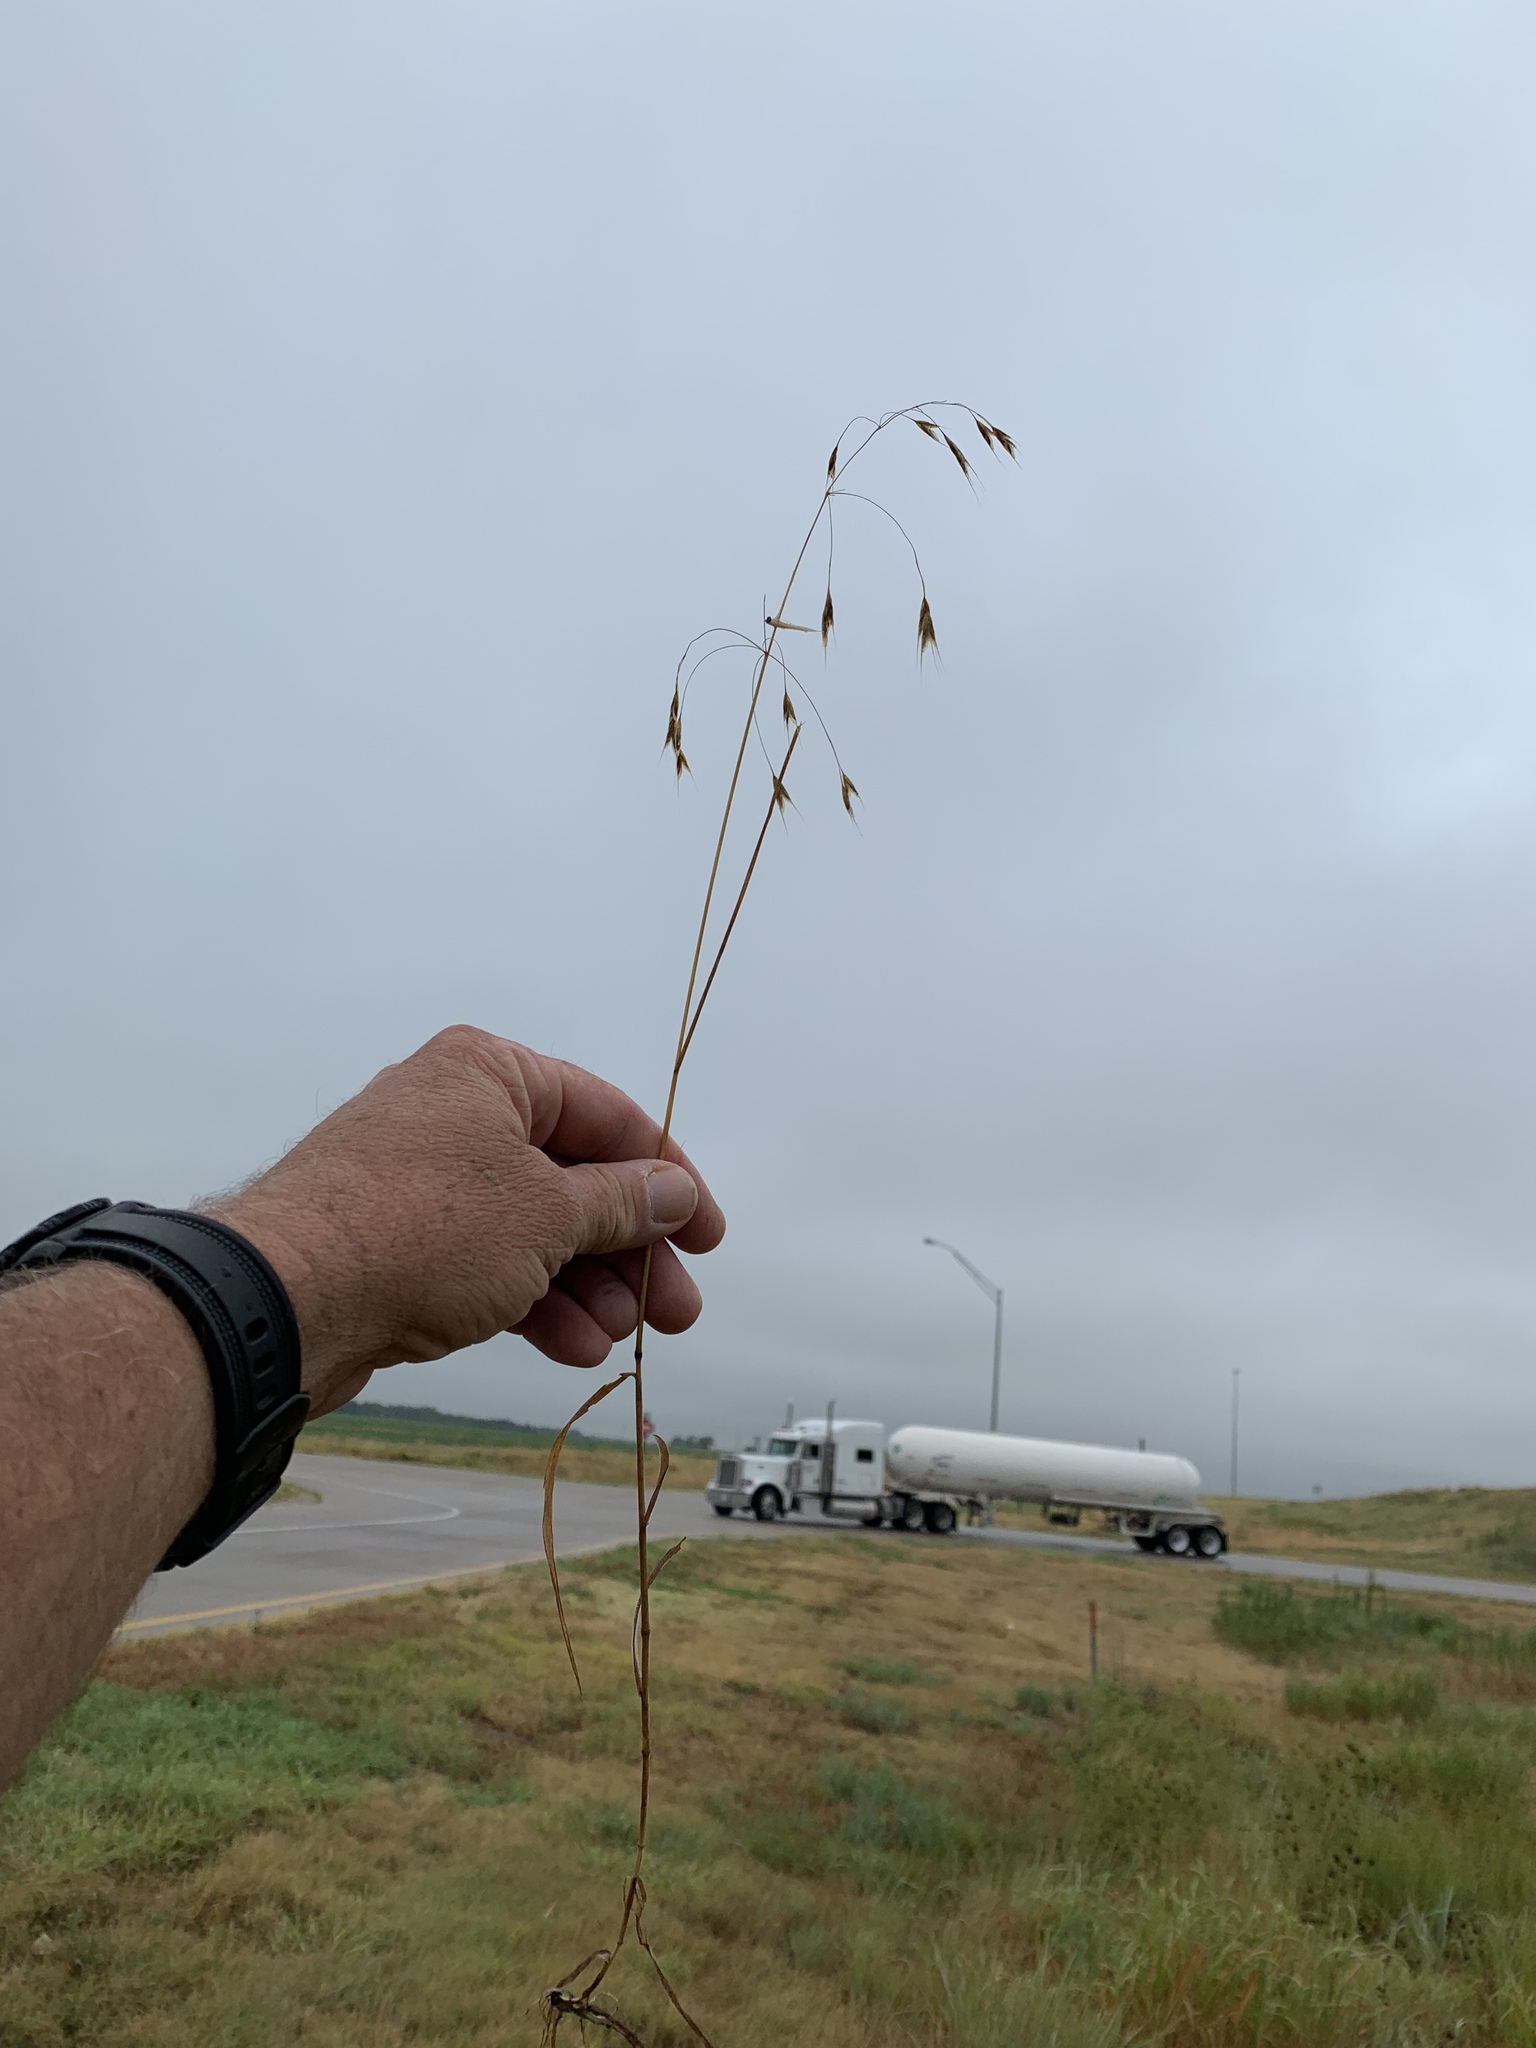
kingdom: Plantae
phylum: Tracheophyta
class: Liliopsida
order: Poales
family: Poaceae
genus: Bromus
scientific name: Bromus japonicus
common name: Japanese brome
